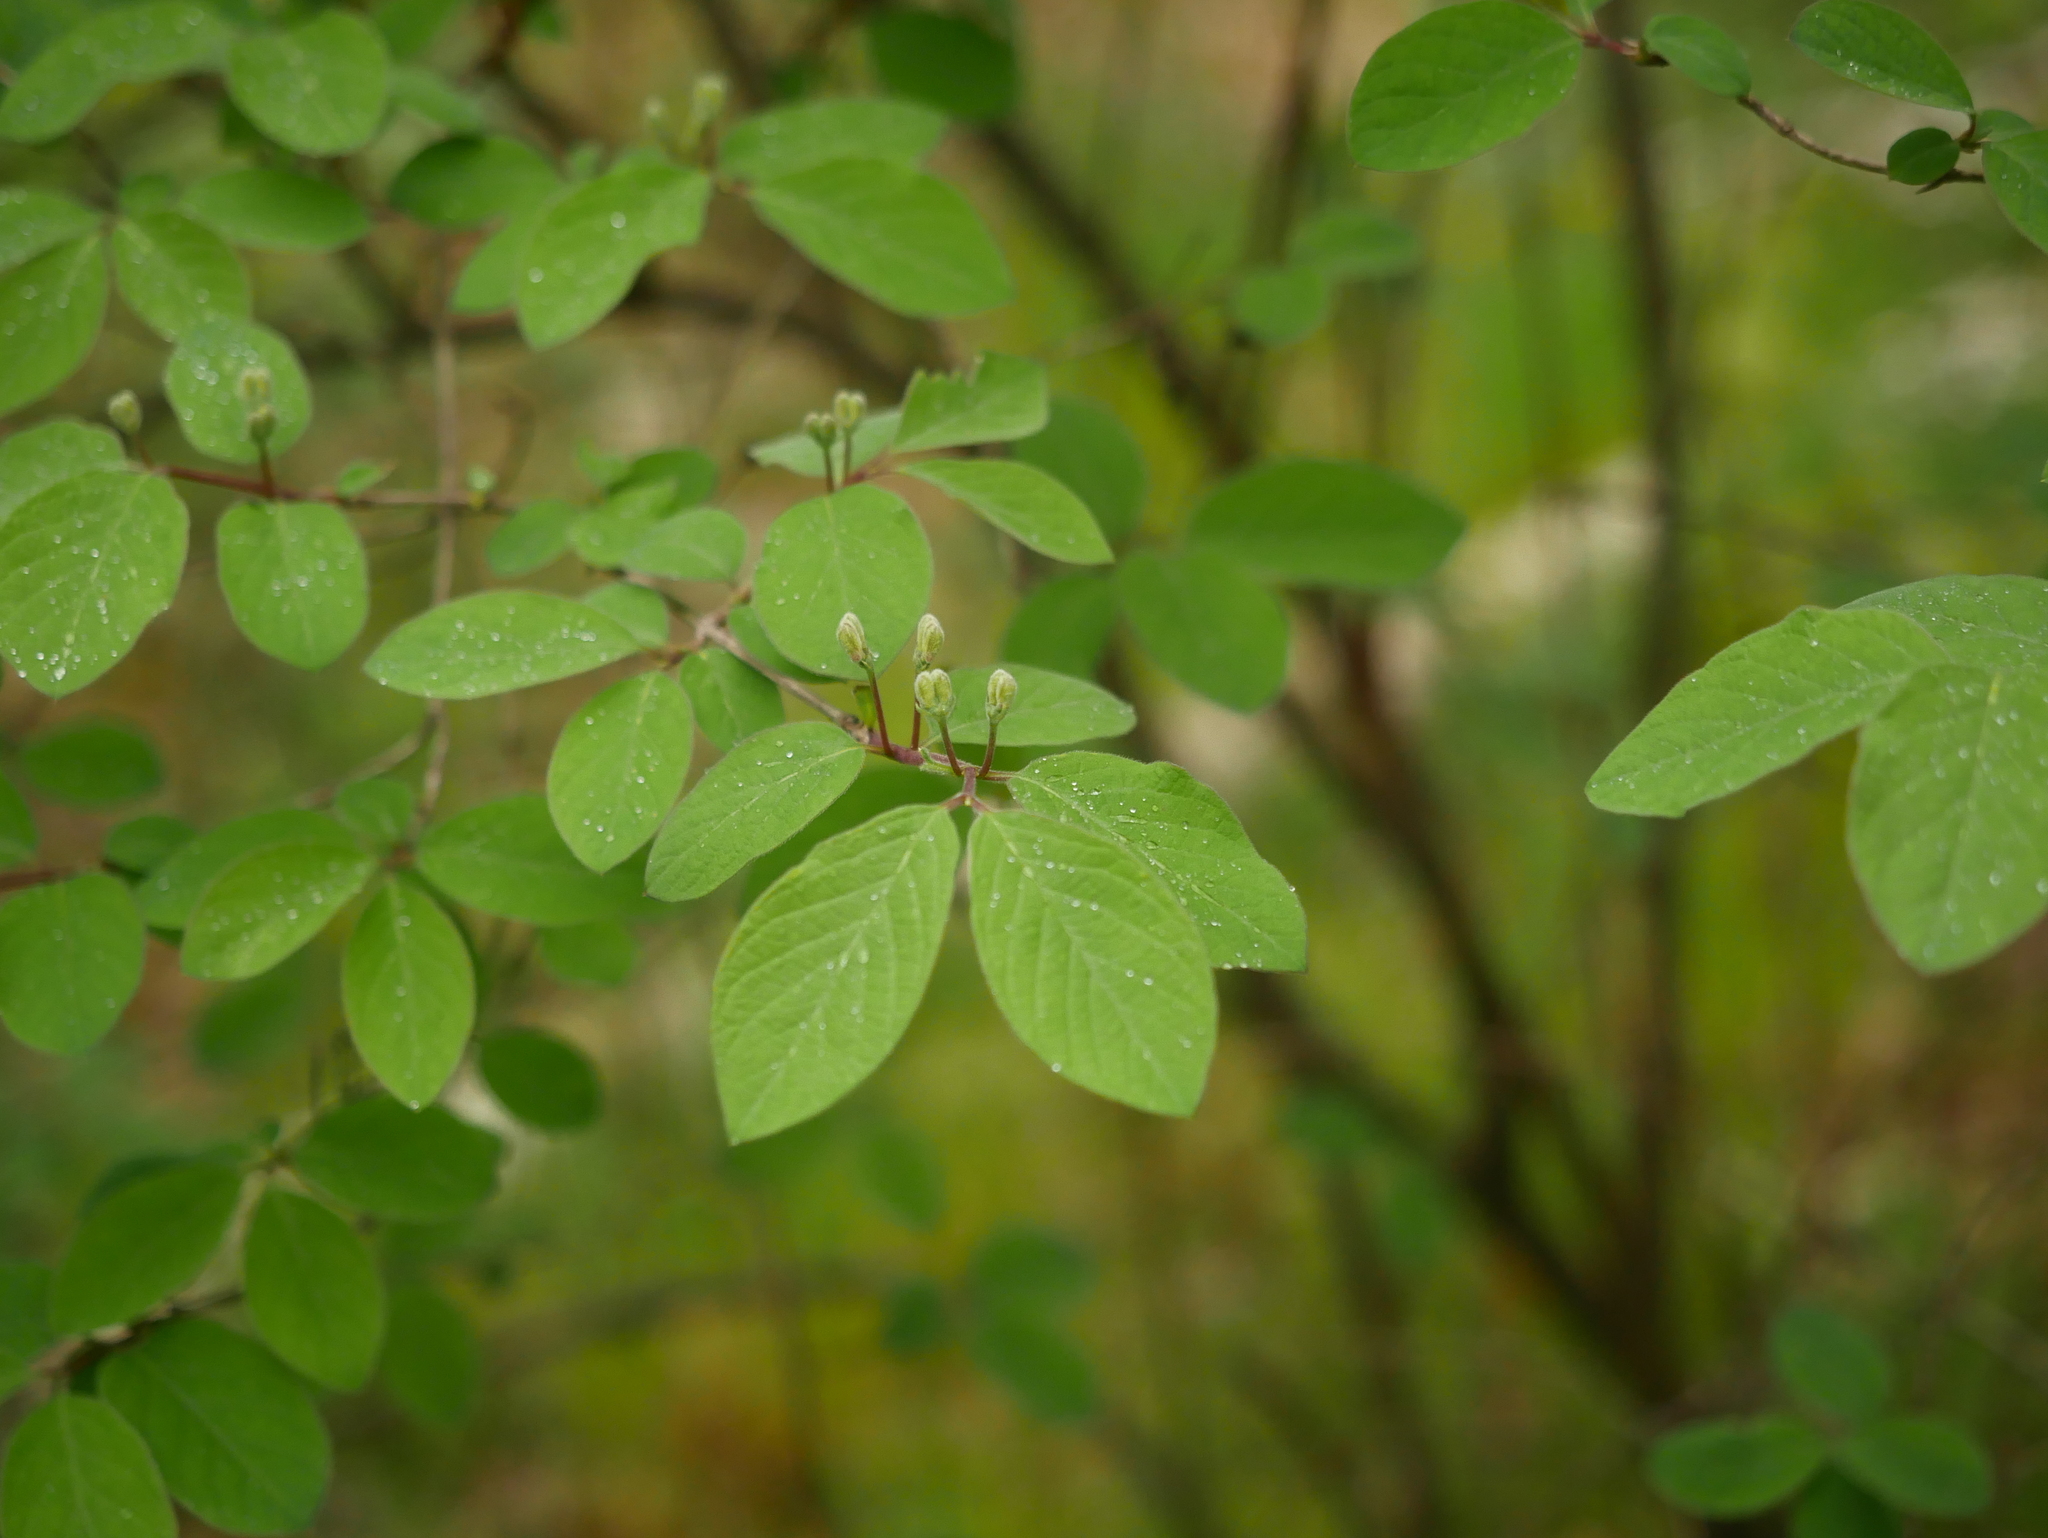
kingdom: Plantae
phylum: Tracheophyta
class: Magnoliopsida
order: Dipsacales
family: Caprifoliaceae
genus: Lonicera
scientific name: Lonicera xylosteum
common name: Fly honeysuckle
